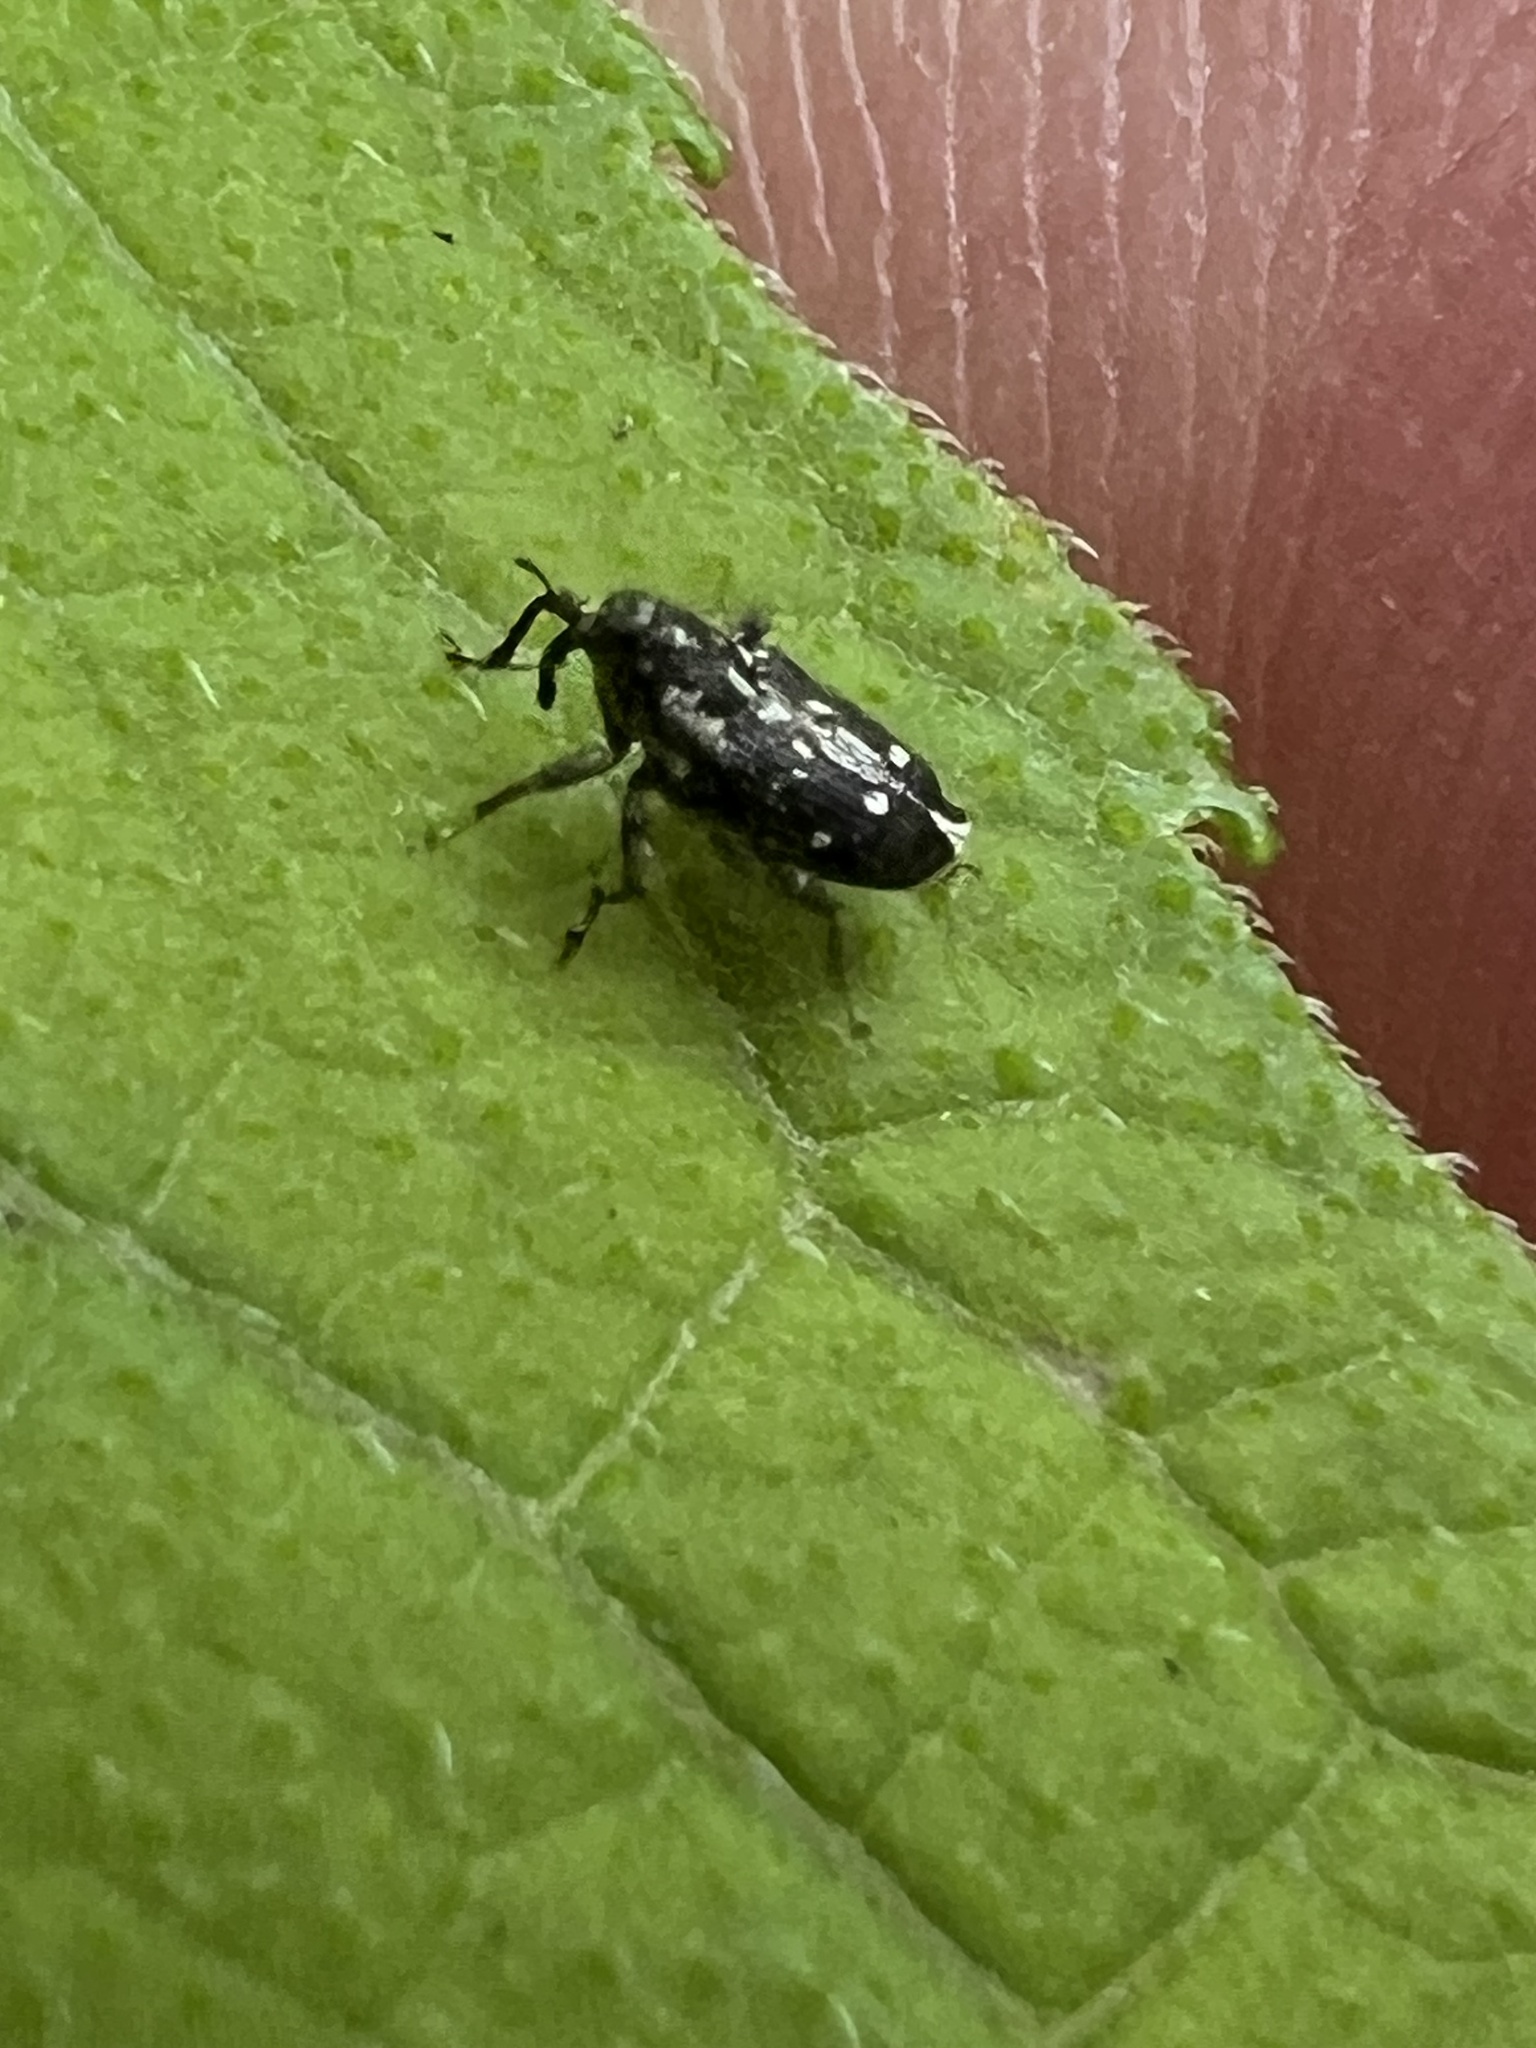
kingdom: Animalia
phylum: Arthropoda
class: Insecta
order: Coleoptera
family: Curculionidae
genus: Cylindrocopturus
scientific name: Cylindrocopturus quercus
